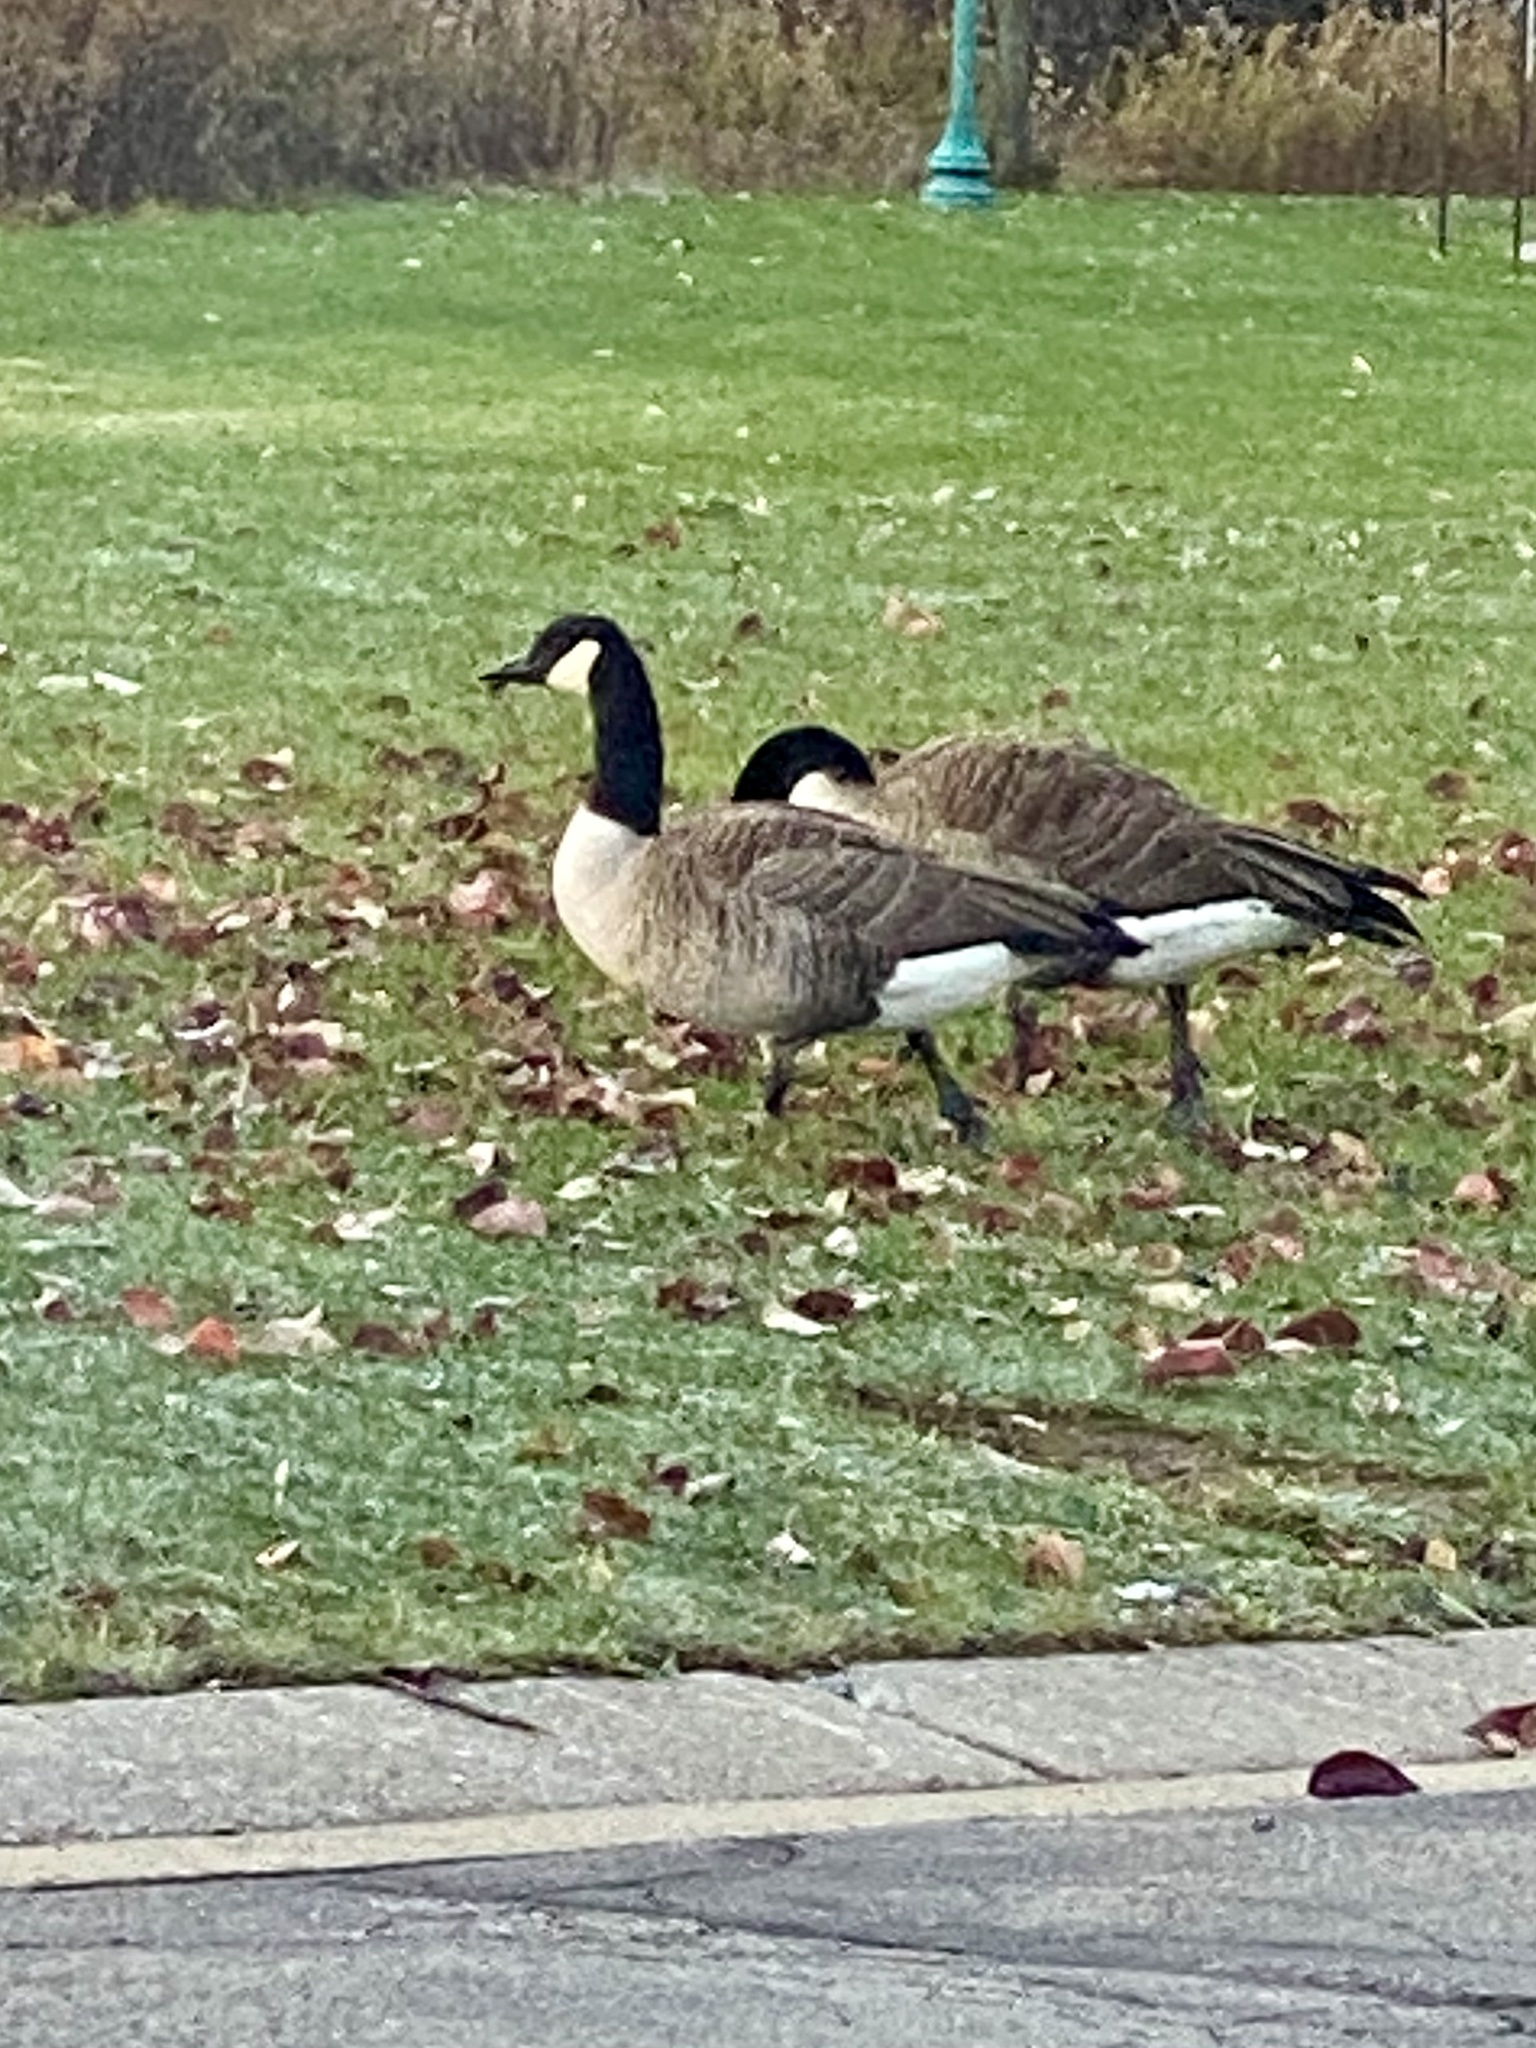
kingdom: Animalia
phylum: Chordata
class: Aves
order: Anseriformes
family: Anatidae
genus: Branta
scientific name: Branta canadensis
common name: Canada goose
